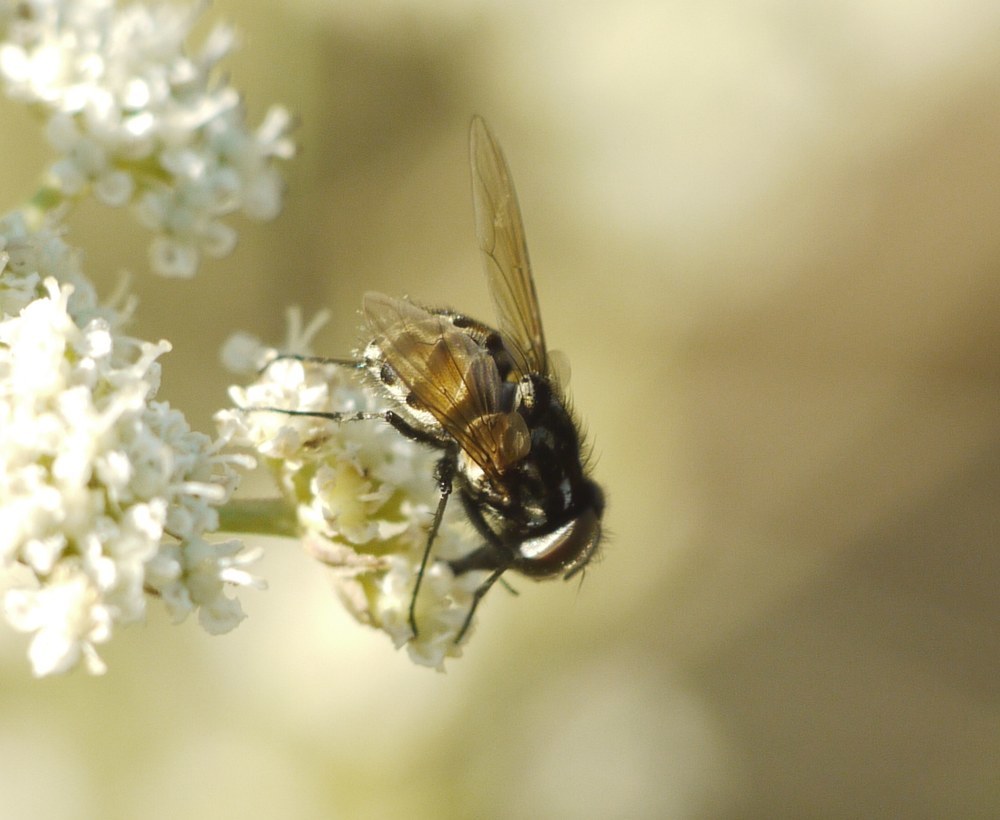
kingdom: Animalia
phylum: Arthropoda
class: Insecta
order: Diptera
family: Muscidae
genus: Graphomya
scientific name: Graphomya maculata
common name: Muscid fly
